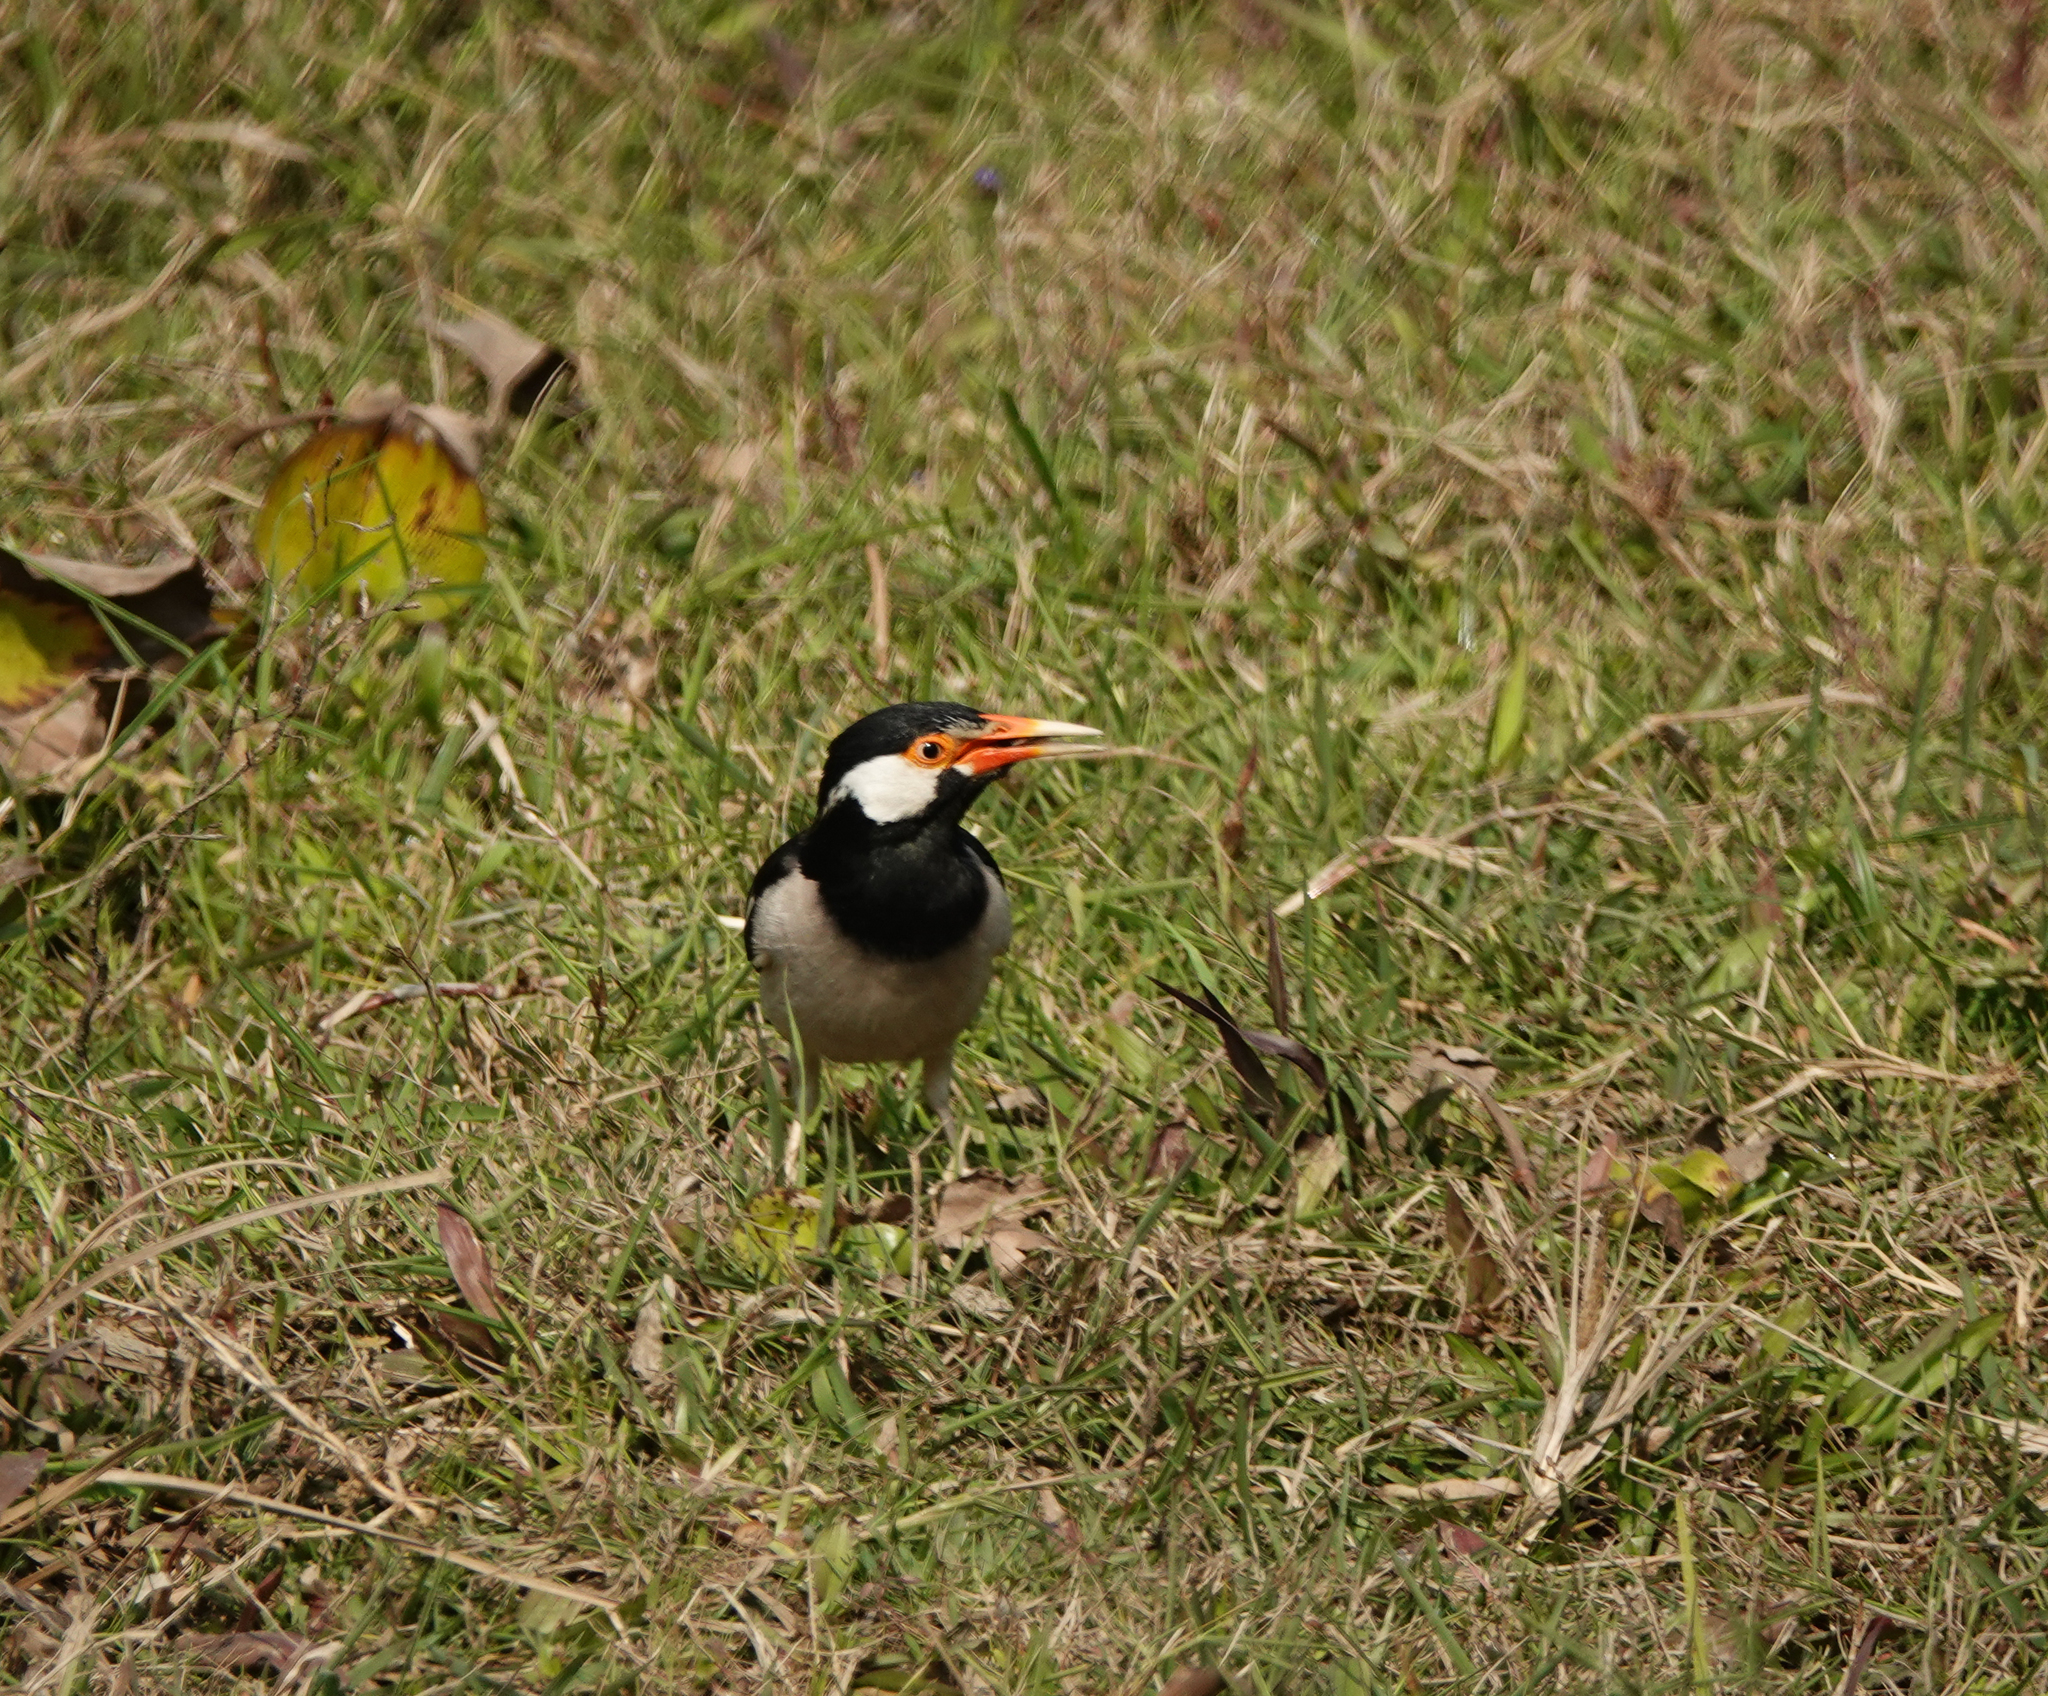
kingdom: Animalia
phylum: Chordata
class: Aves
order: Passeriformes
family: Sturnidae
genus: Gracupica
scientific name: Gracupica contra
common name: Pied myna
